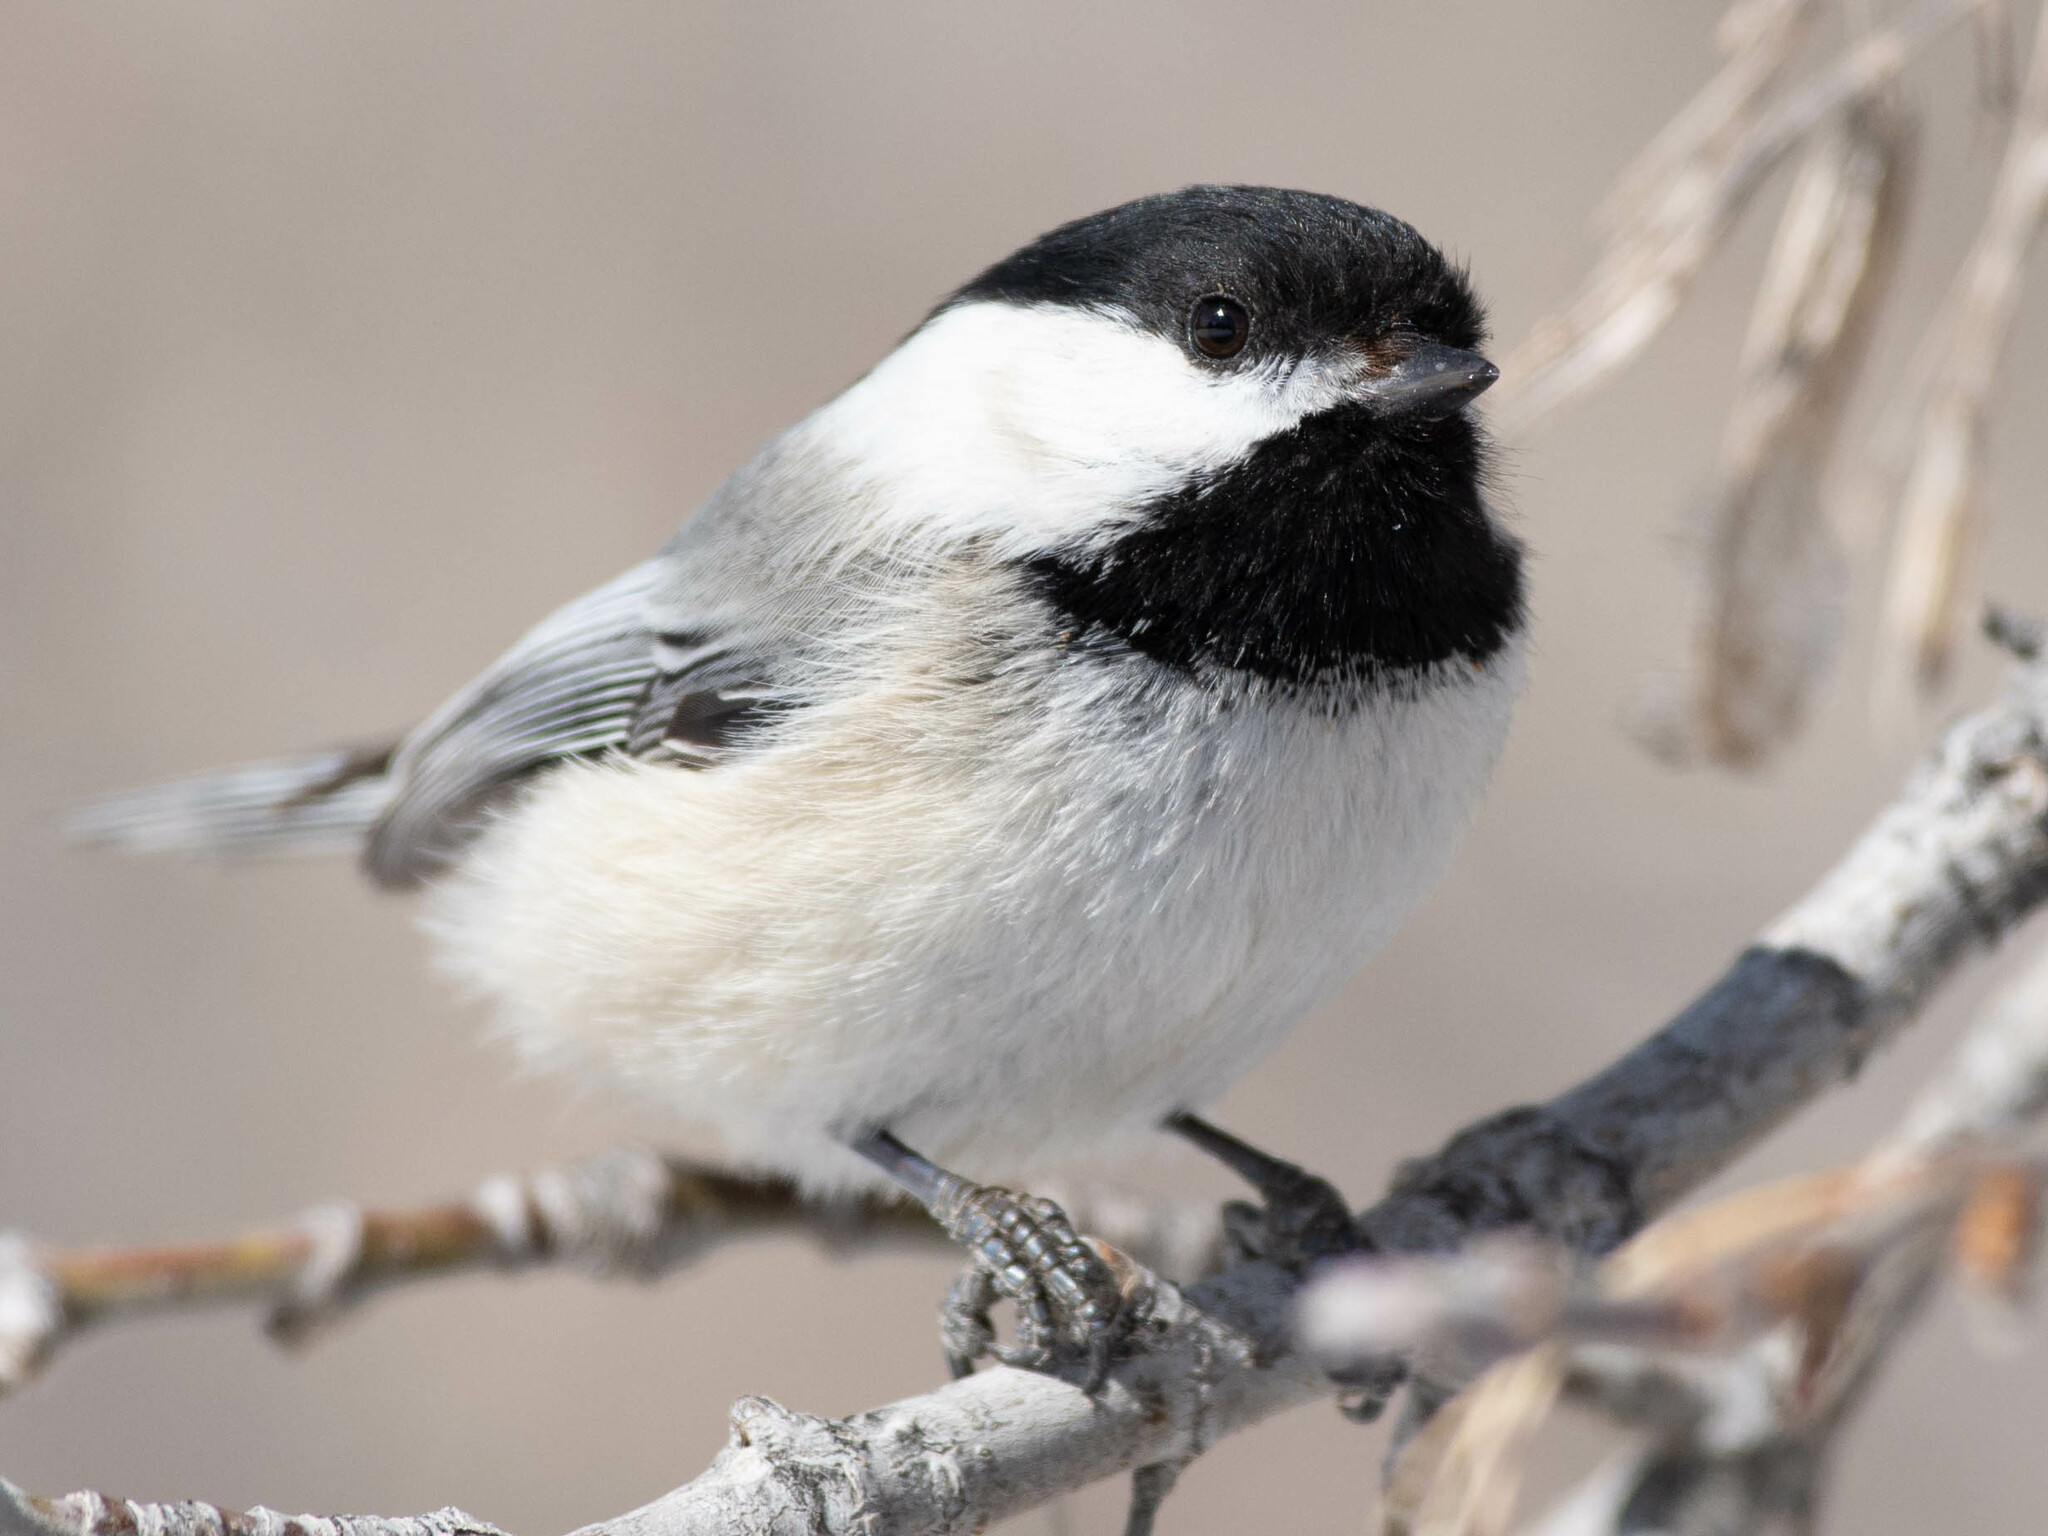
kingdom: Animalia
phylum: Chordata
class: Aves
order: Passeriformes
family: Paridae
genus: Poecile
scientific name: Poecile atricapillus
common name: Black-capped chickadee
